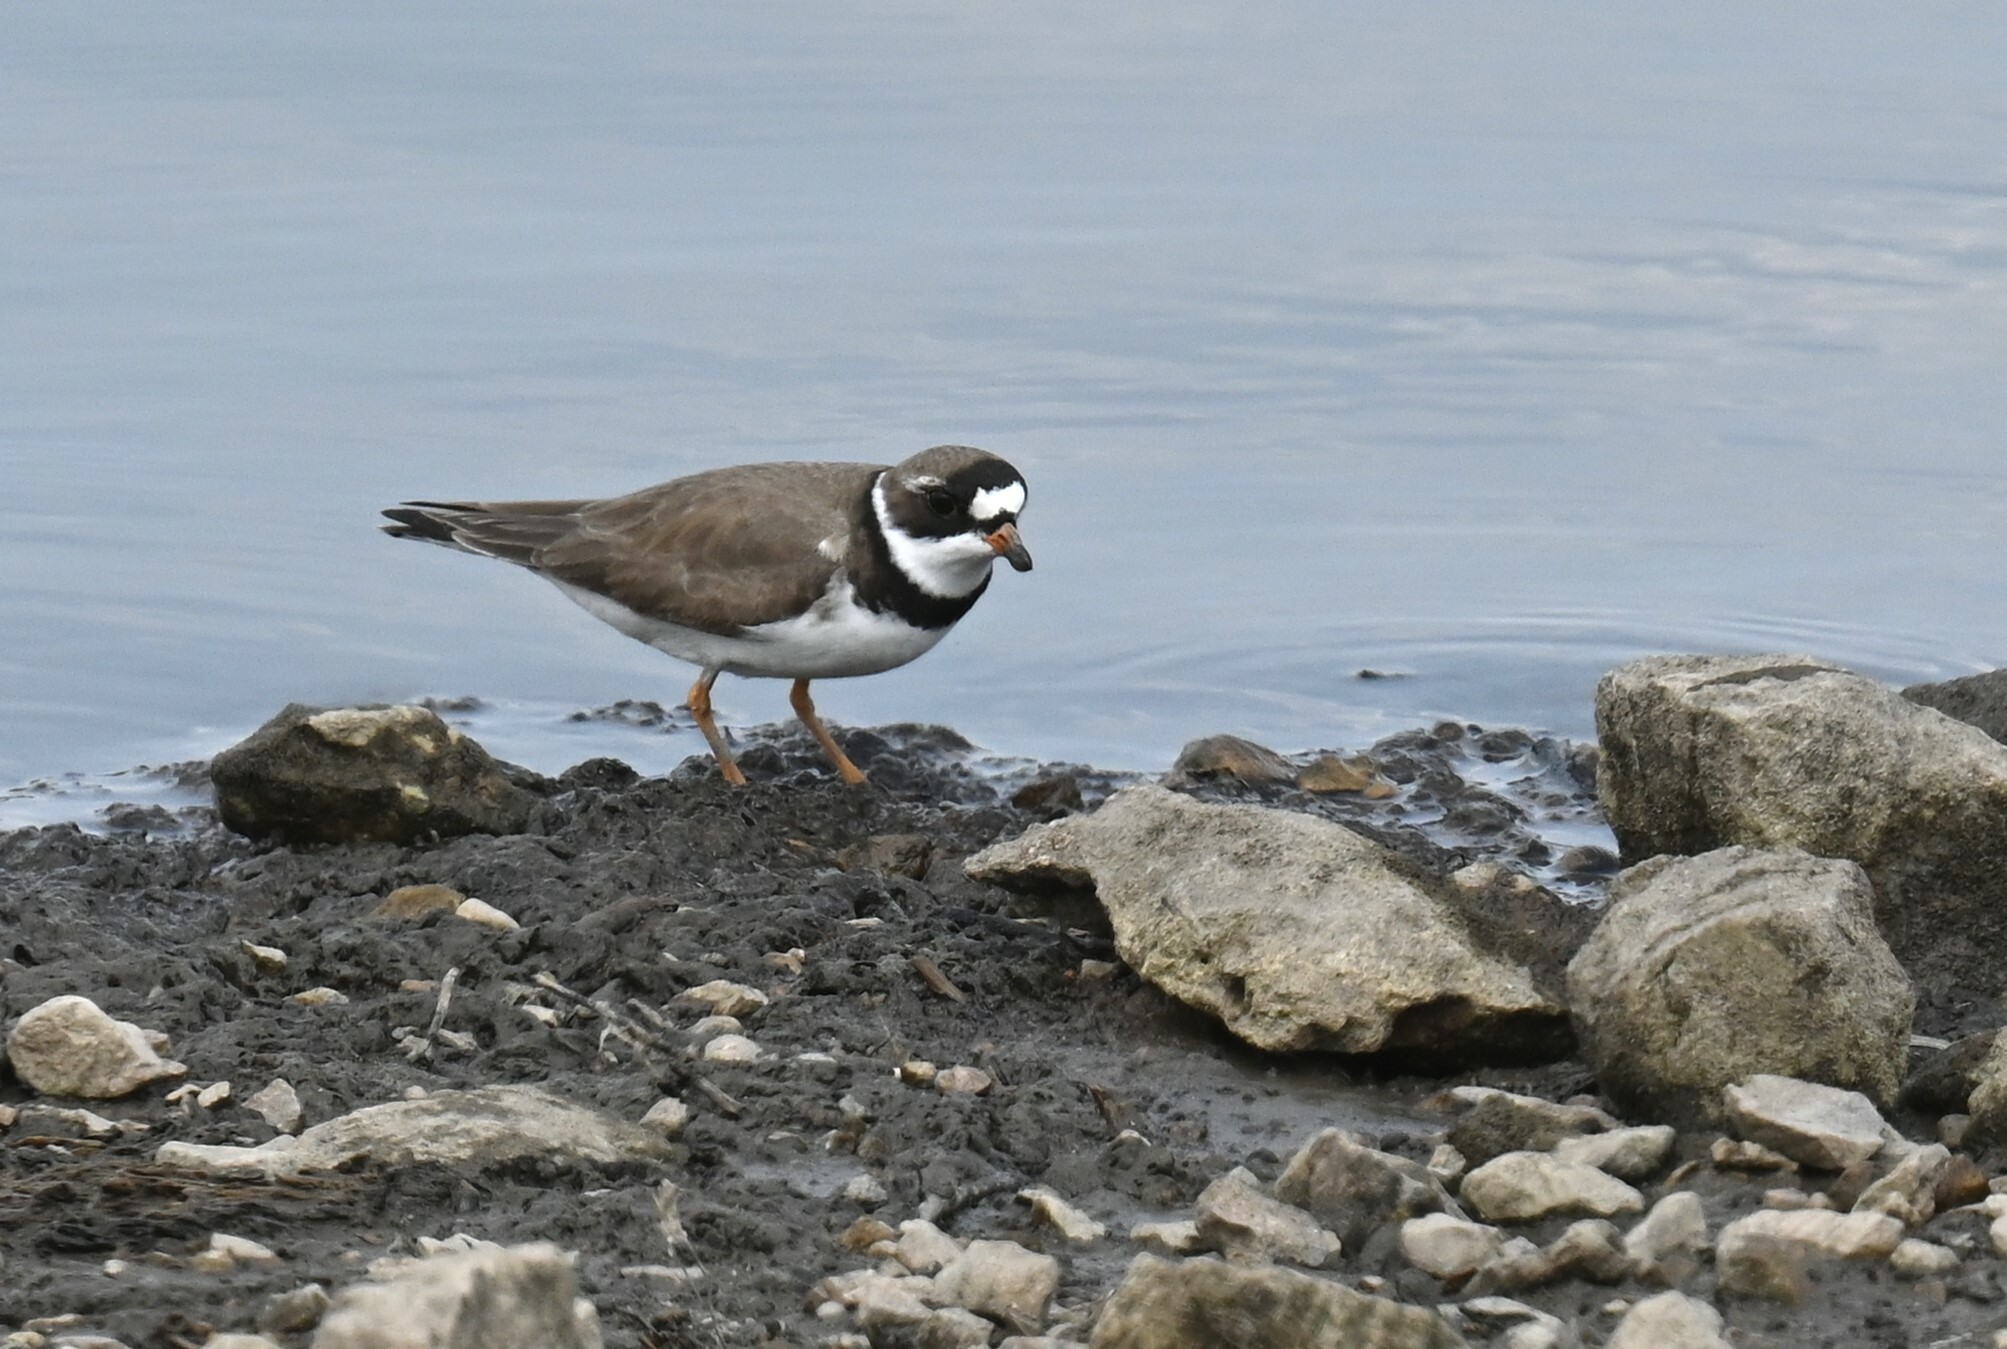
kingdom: Animalia
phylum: Chordata
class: Aves
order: Charadriiformes
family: Charadriidae
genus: Charadrius
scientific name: Charadrius semipalmatus
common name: Semipalmated plover
